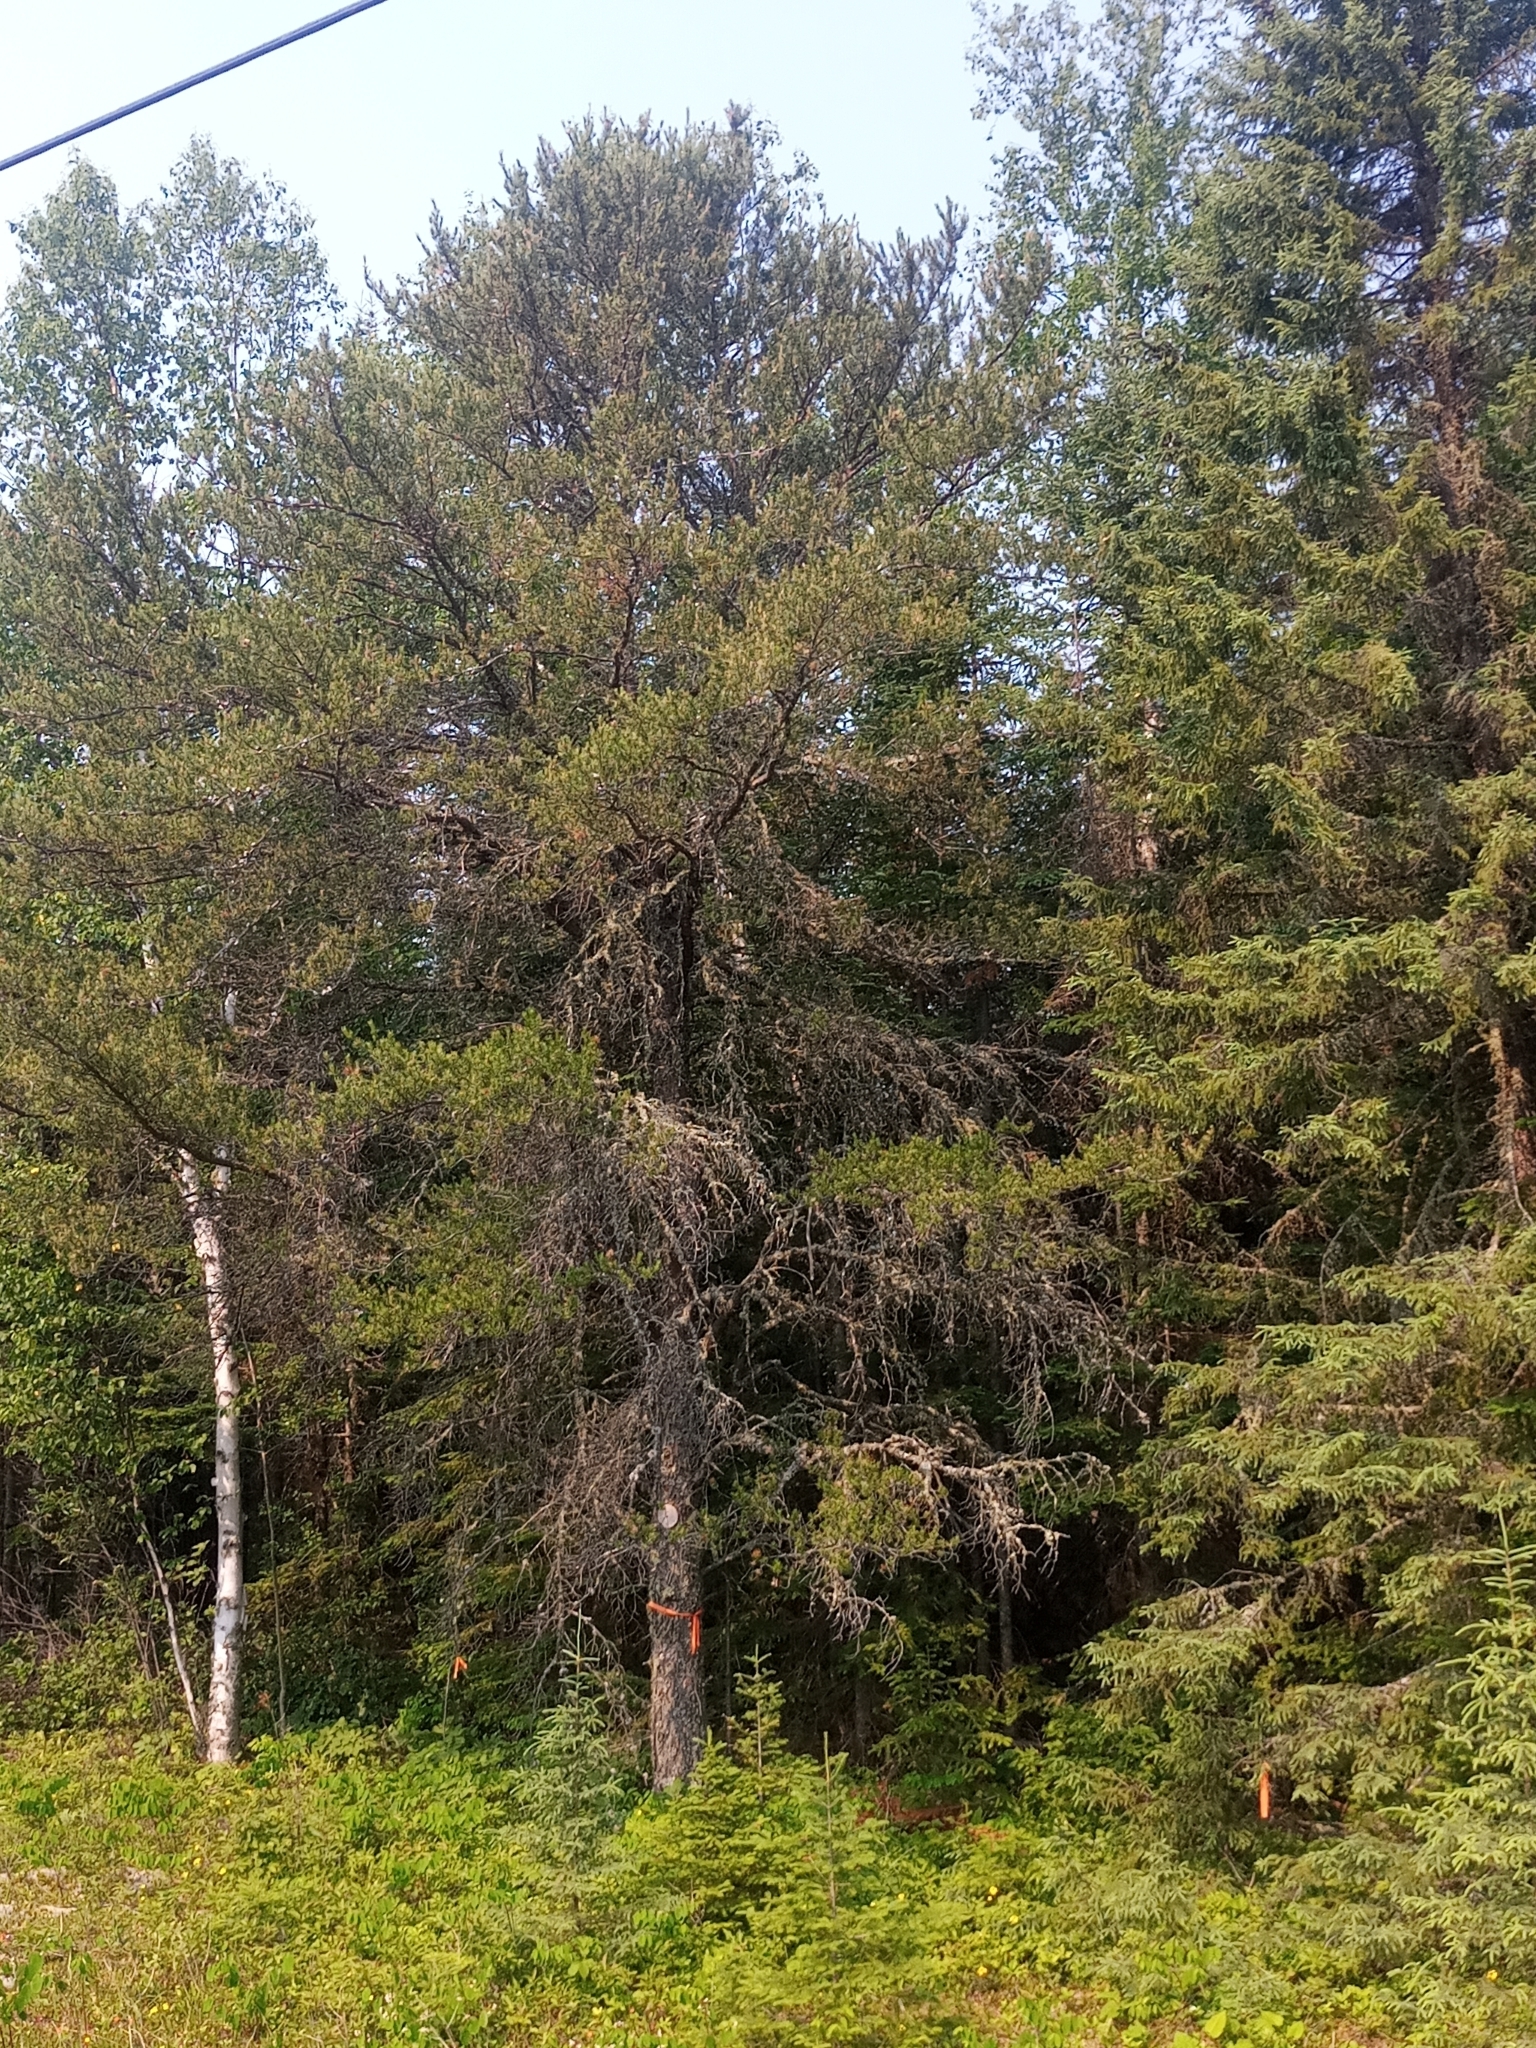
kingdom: Plantae
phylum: Tracheophyta
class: Pinopsida
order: Pinales
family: Pinaceae
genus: Pinus
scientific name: Pinus banksiana
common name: Jack pine
